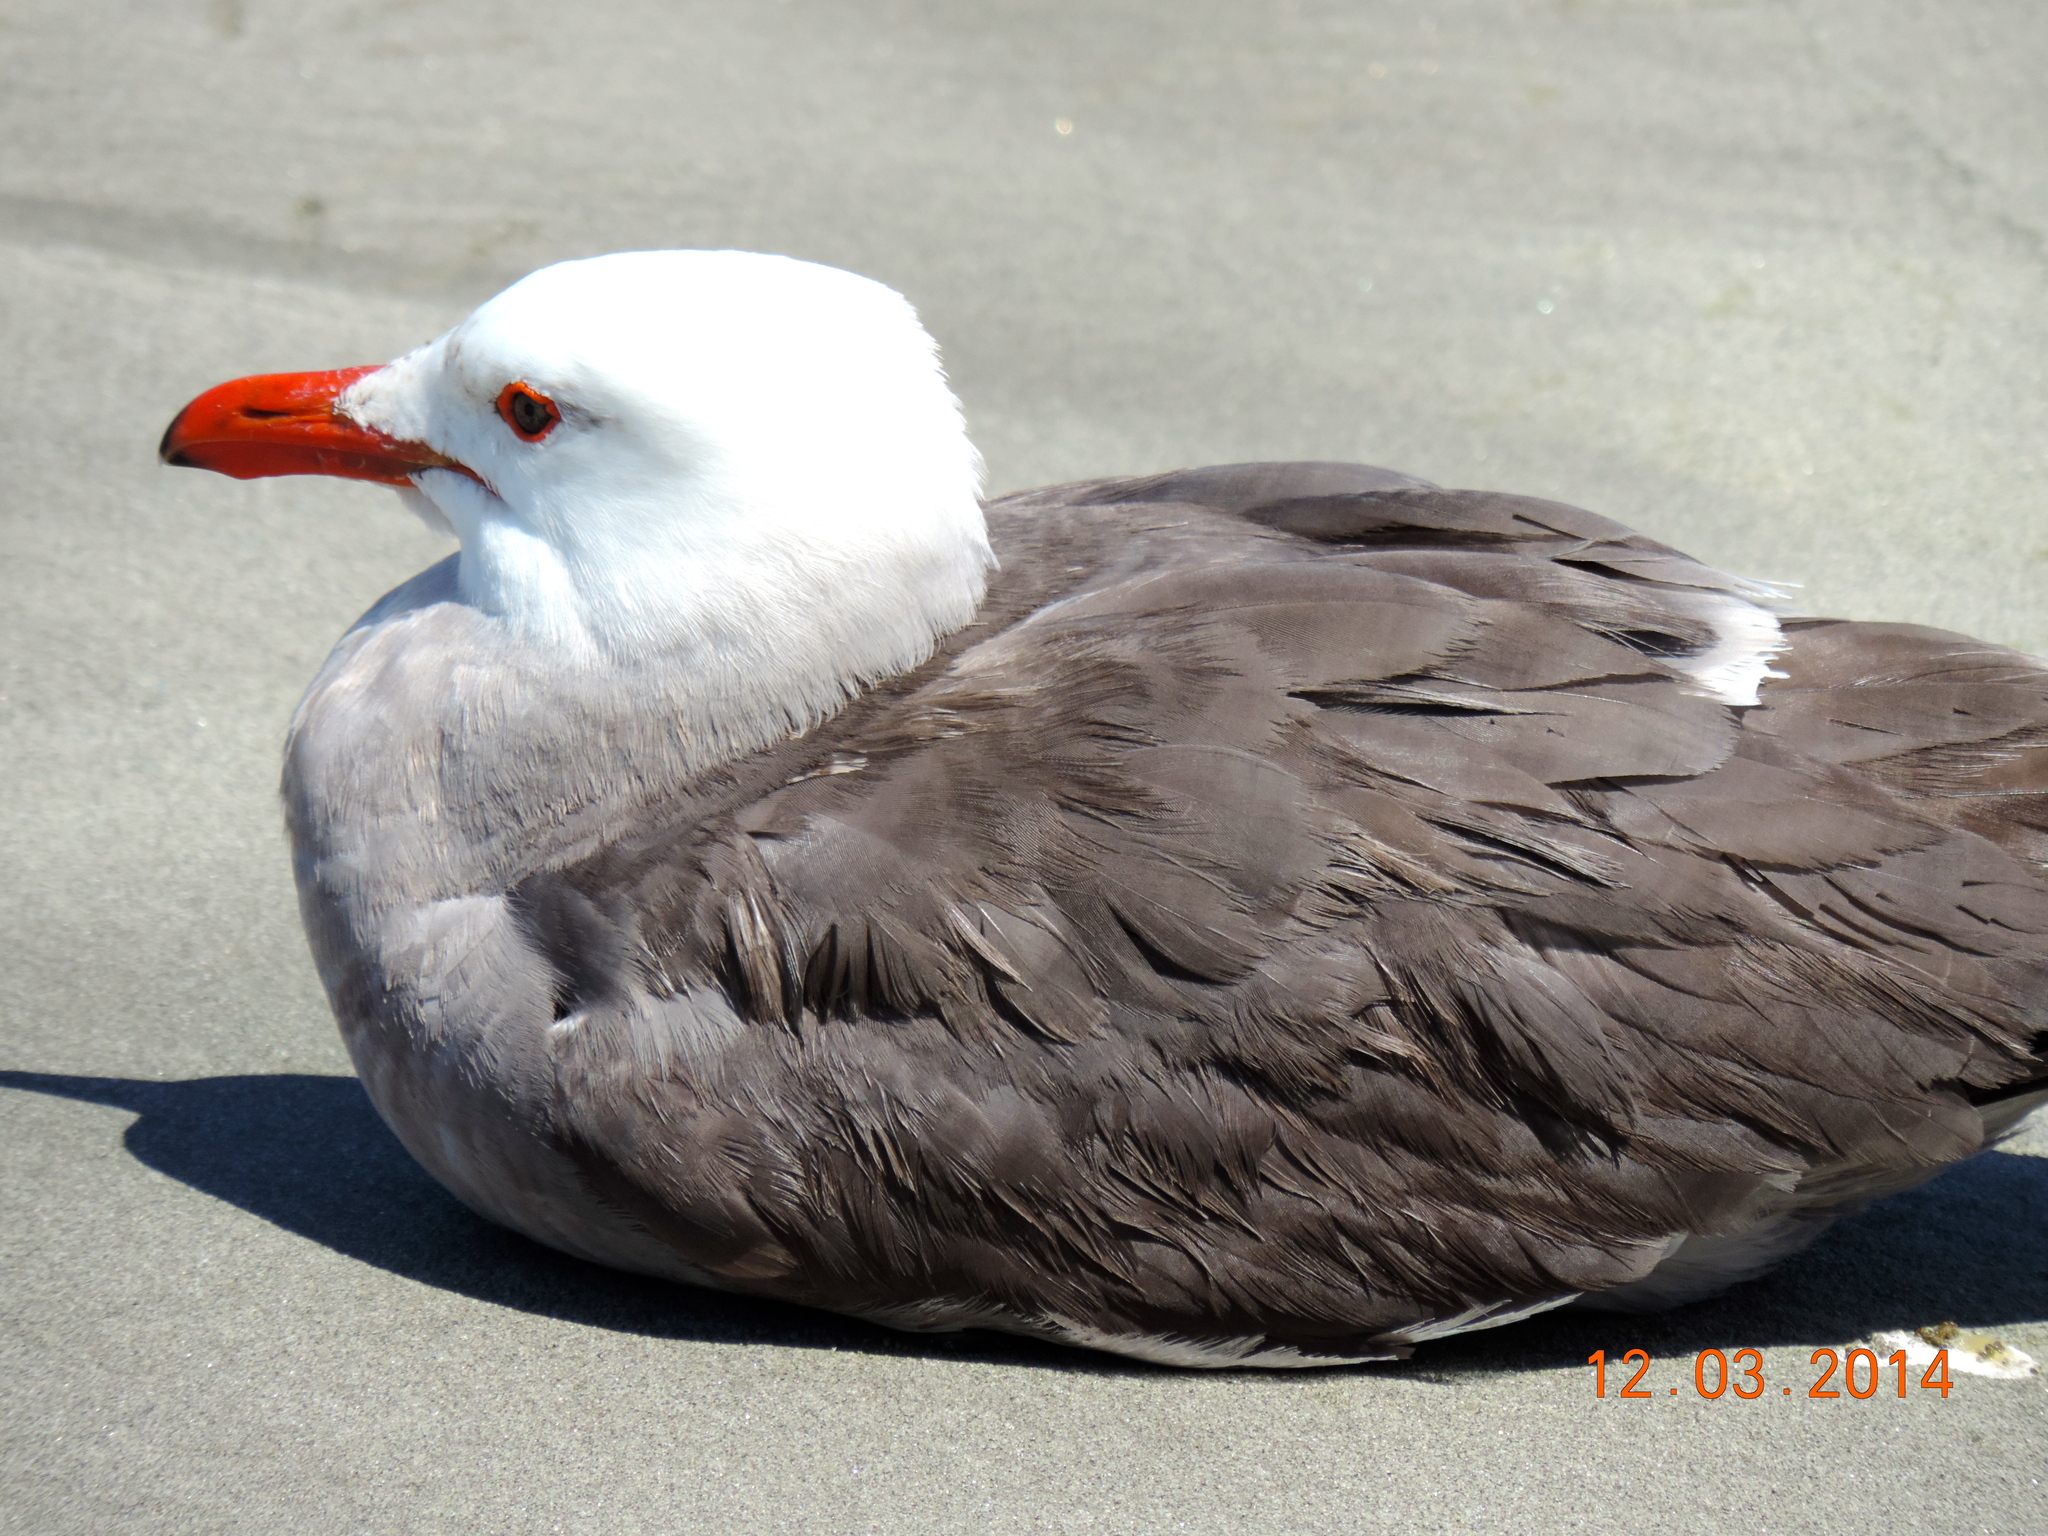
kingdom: Animalia
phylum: Chordata
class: Aves
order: Charadriiformes
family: Laridae
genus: Larus
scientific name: Larus heermanni
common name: Heermann's gull
